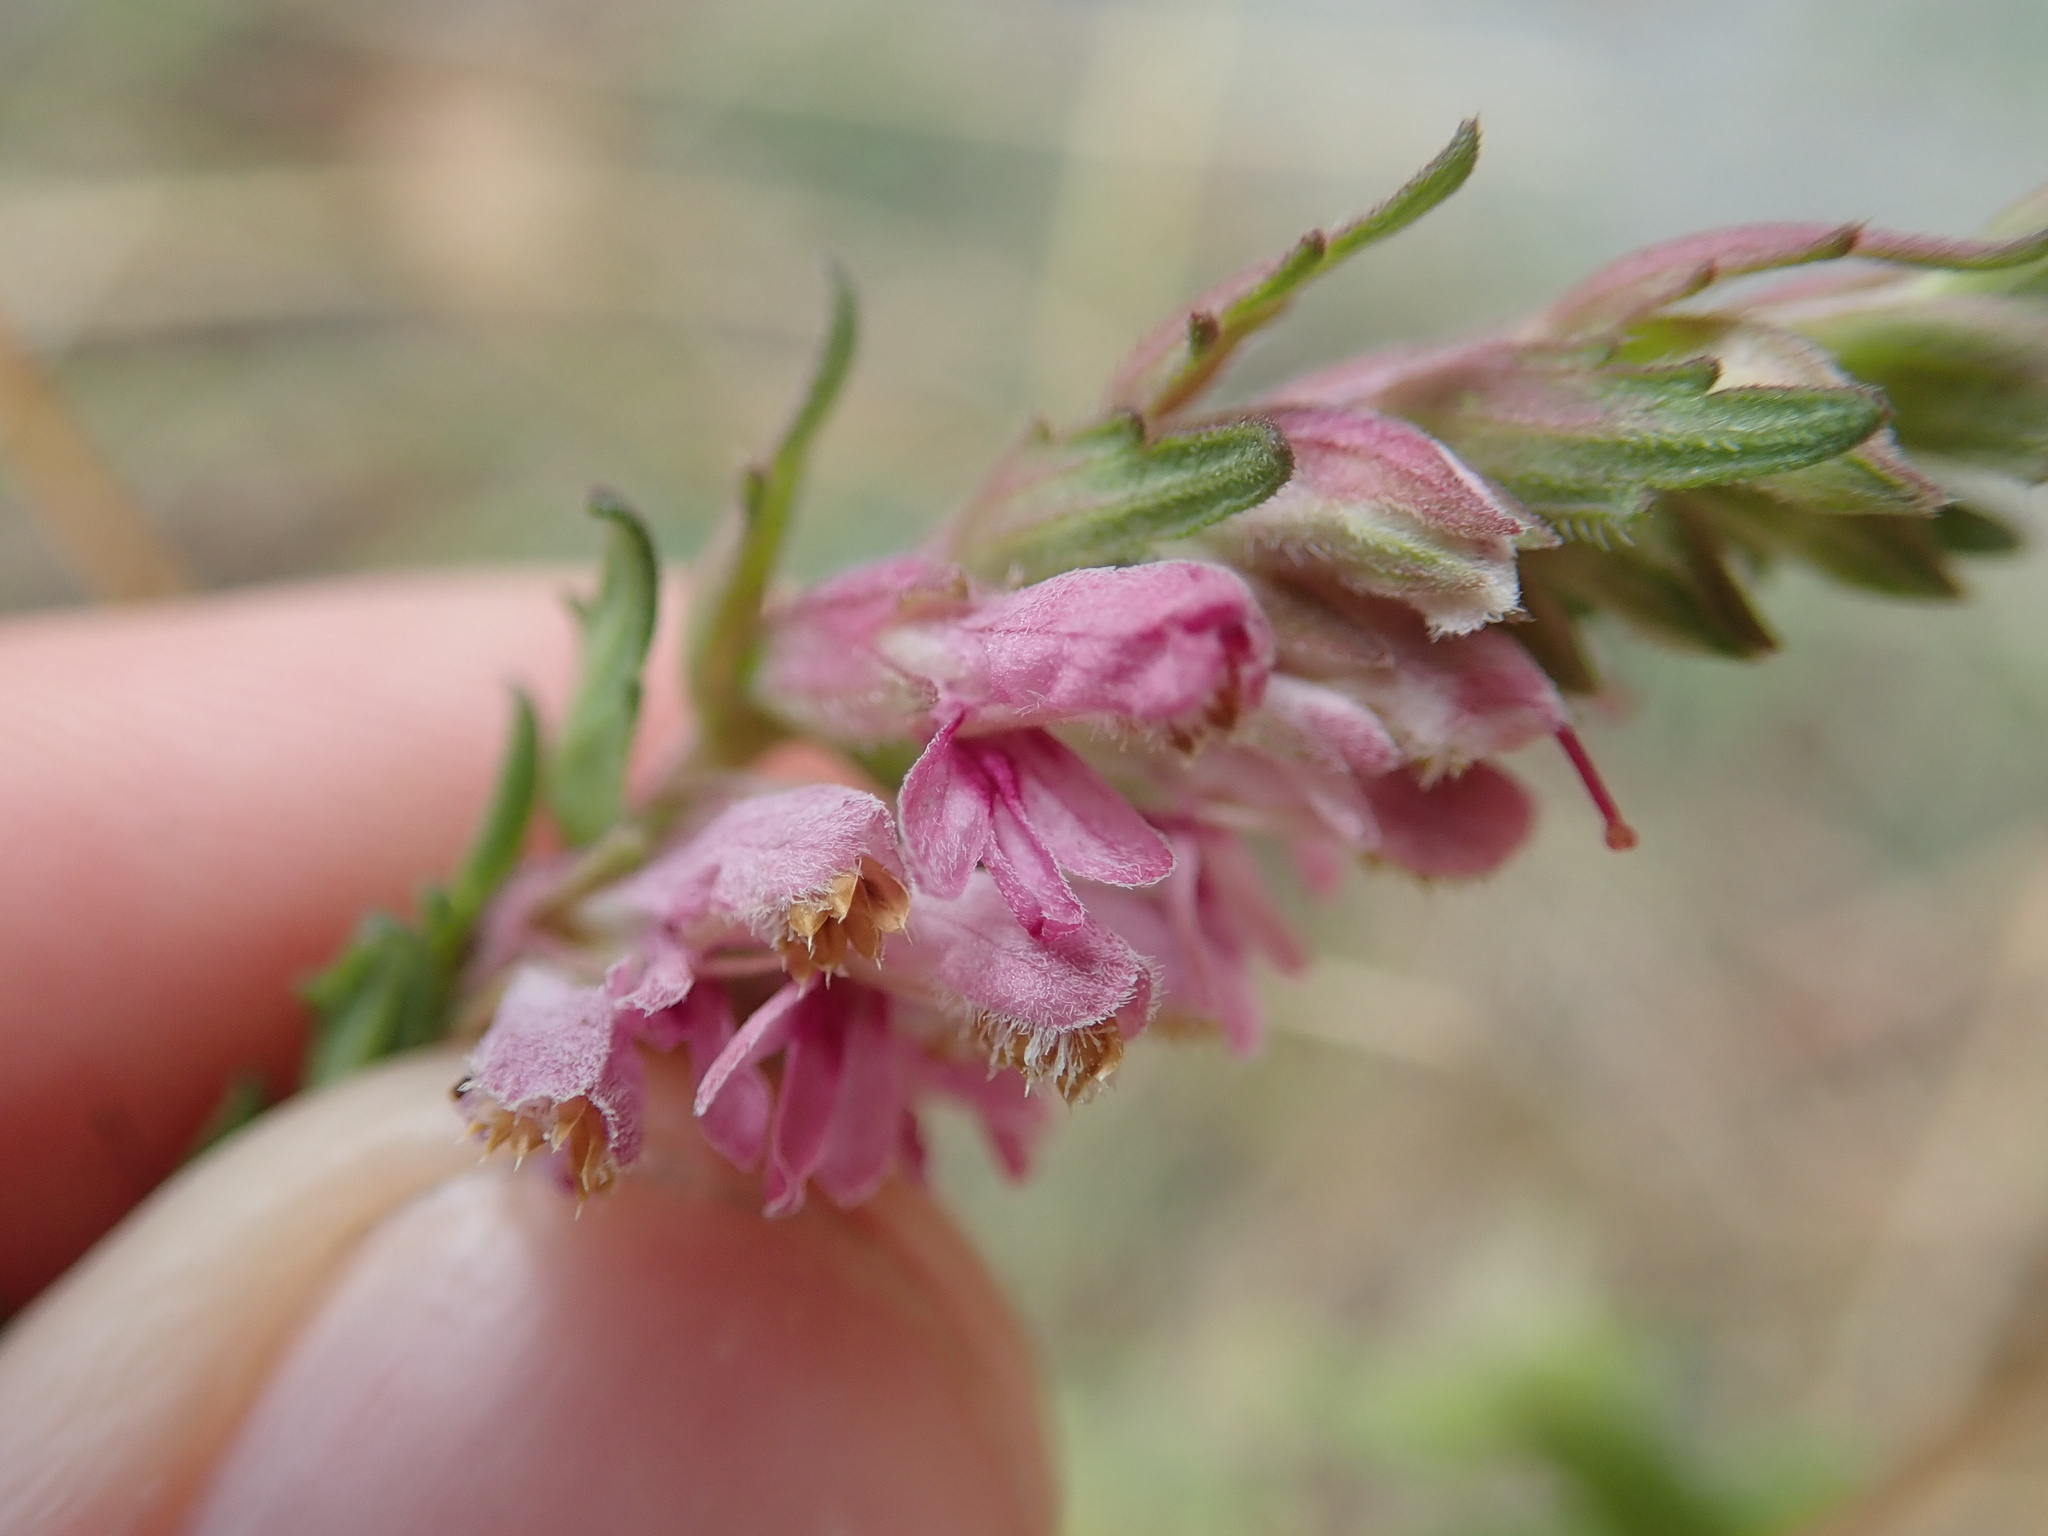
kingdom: Plantae
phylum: Tracheophyta
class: Magnoliopsida
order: Lamiales
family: Orobanchaceae
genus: Odontites
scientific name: Odontites vernus
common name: Red bartsia
